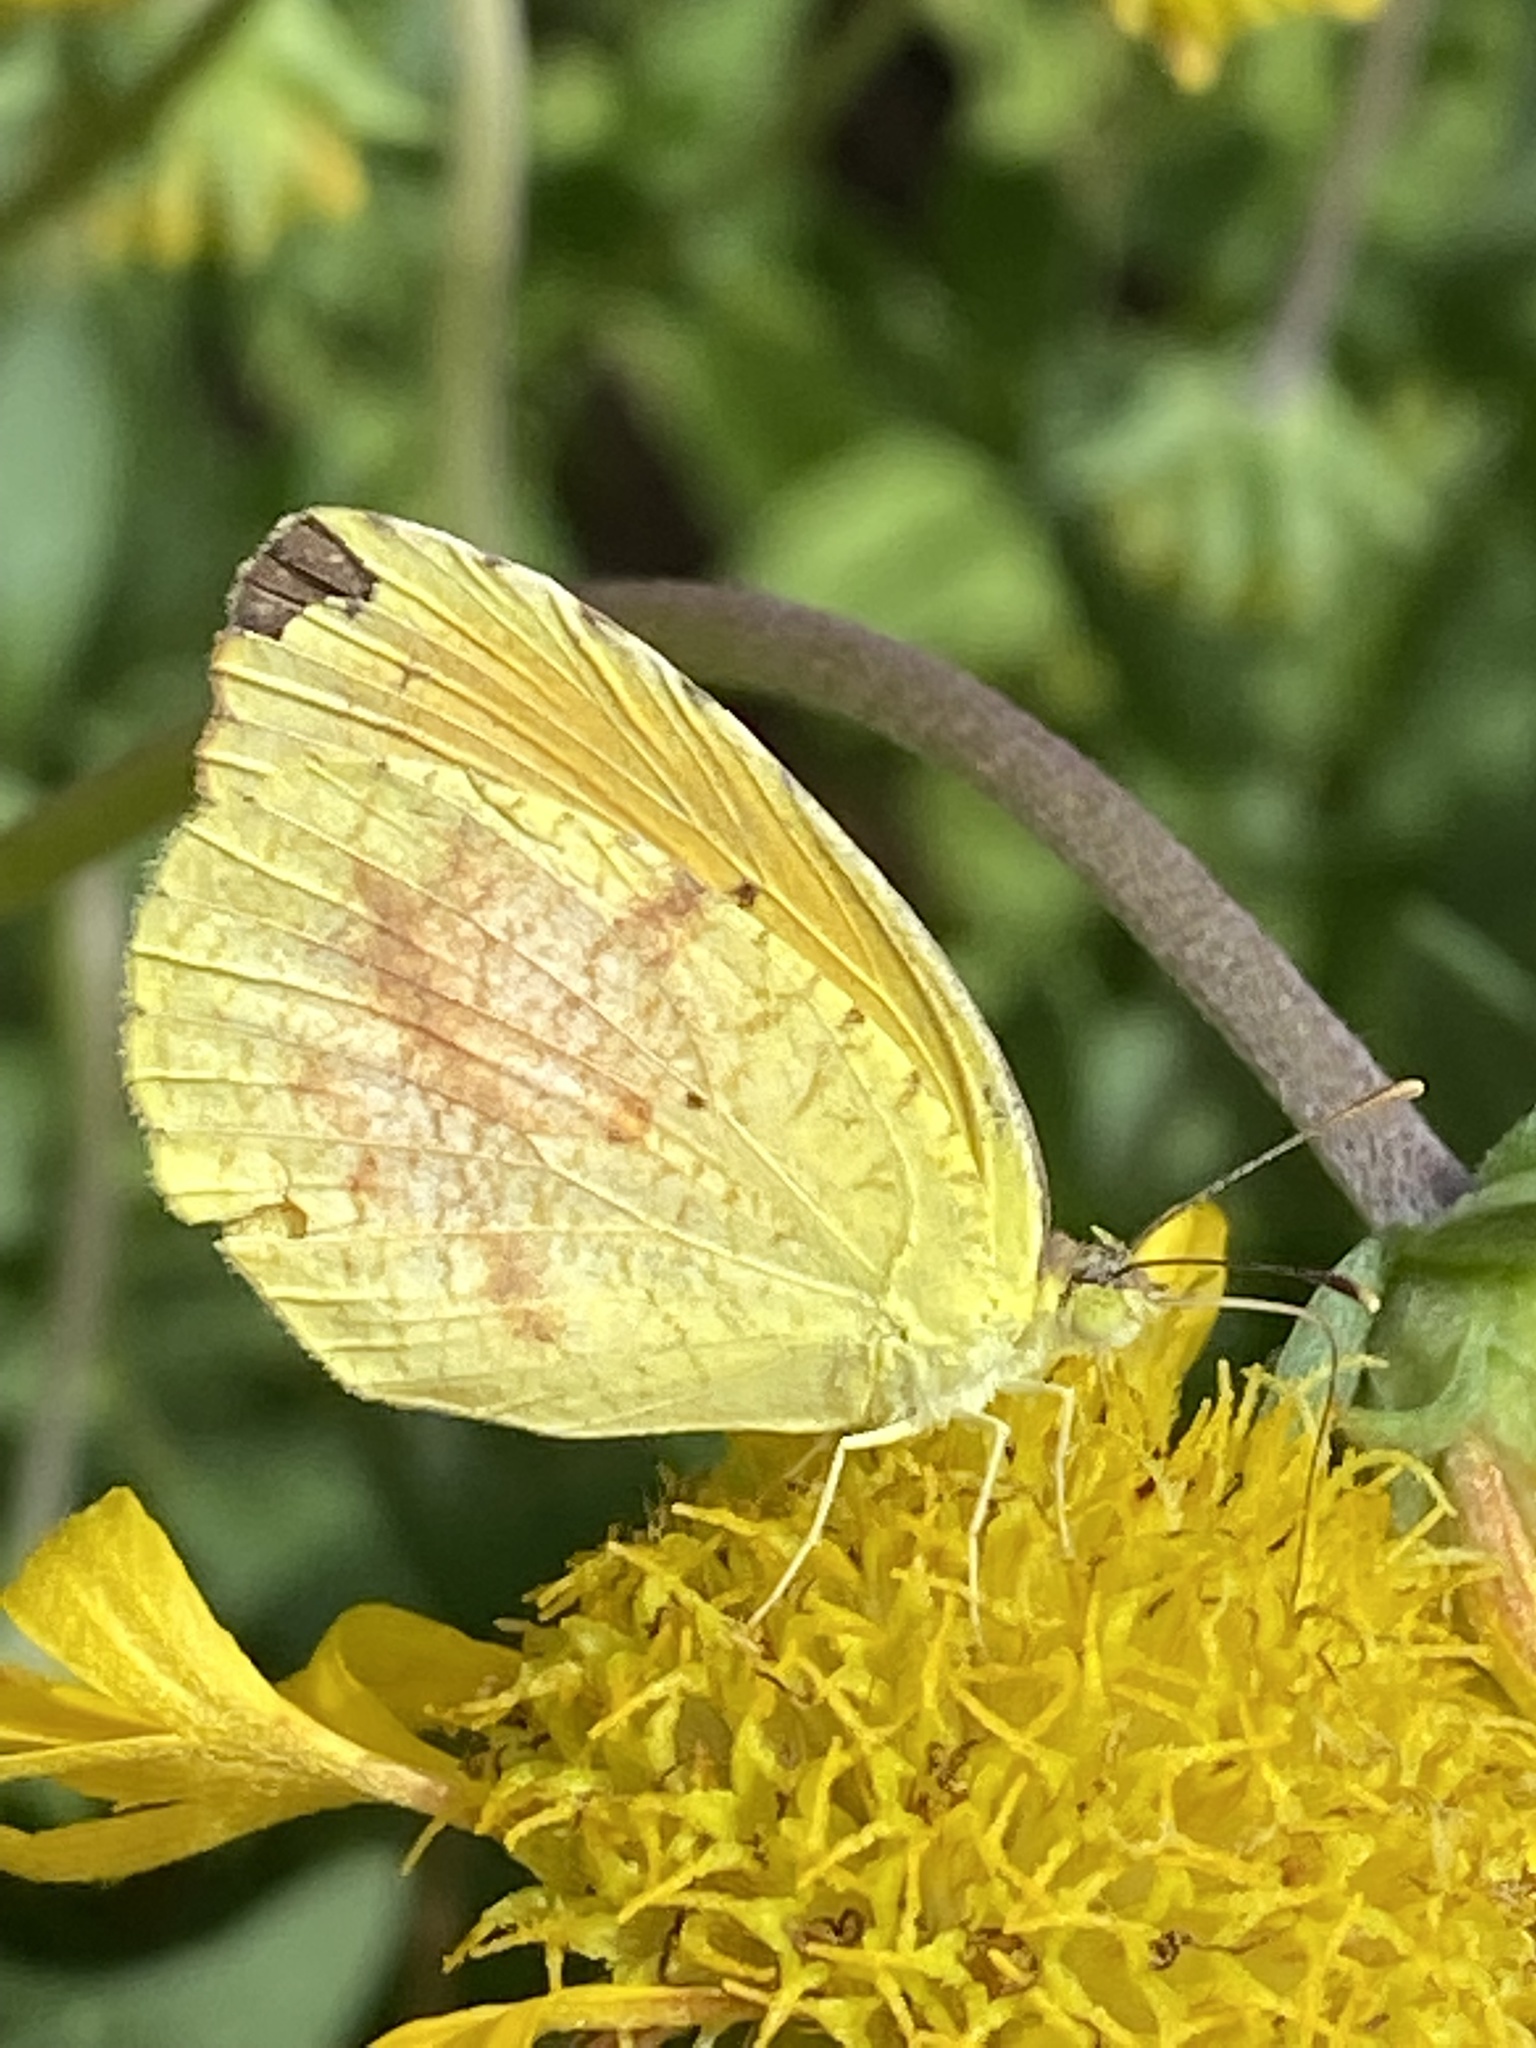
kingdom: Animalia
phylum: Arthropoda
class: Insecta
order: Lepidoptera
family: Pieridae
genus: Abaeis
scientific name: Abaeis nicippe
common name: Sleepy orange
